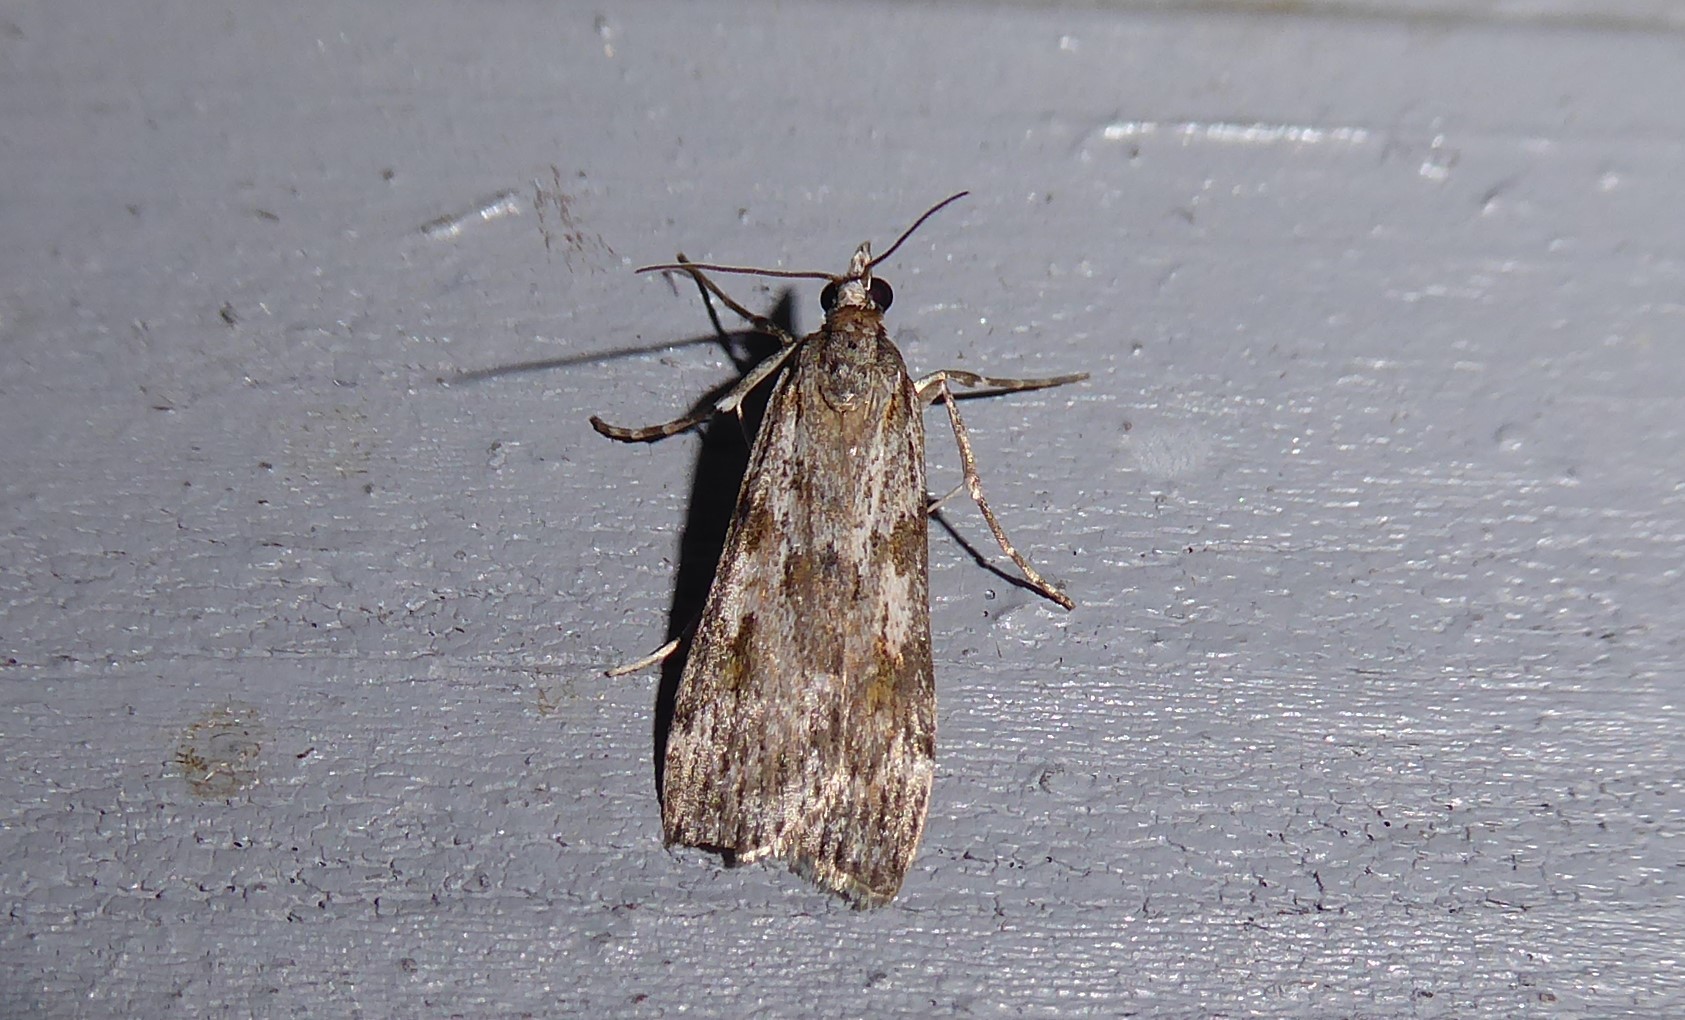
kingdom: Animalia
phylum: Arthropoda
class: Insecta
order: Lepidoptera
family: Crambidae
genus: Scoparia
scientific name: Scoparia halopis
